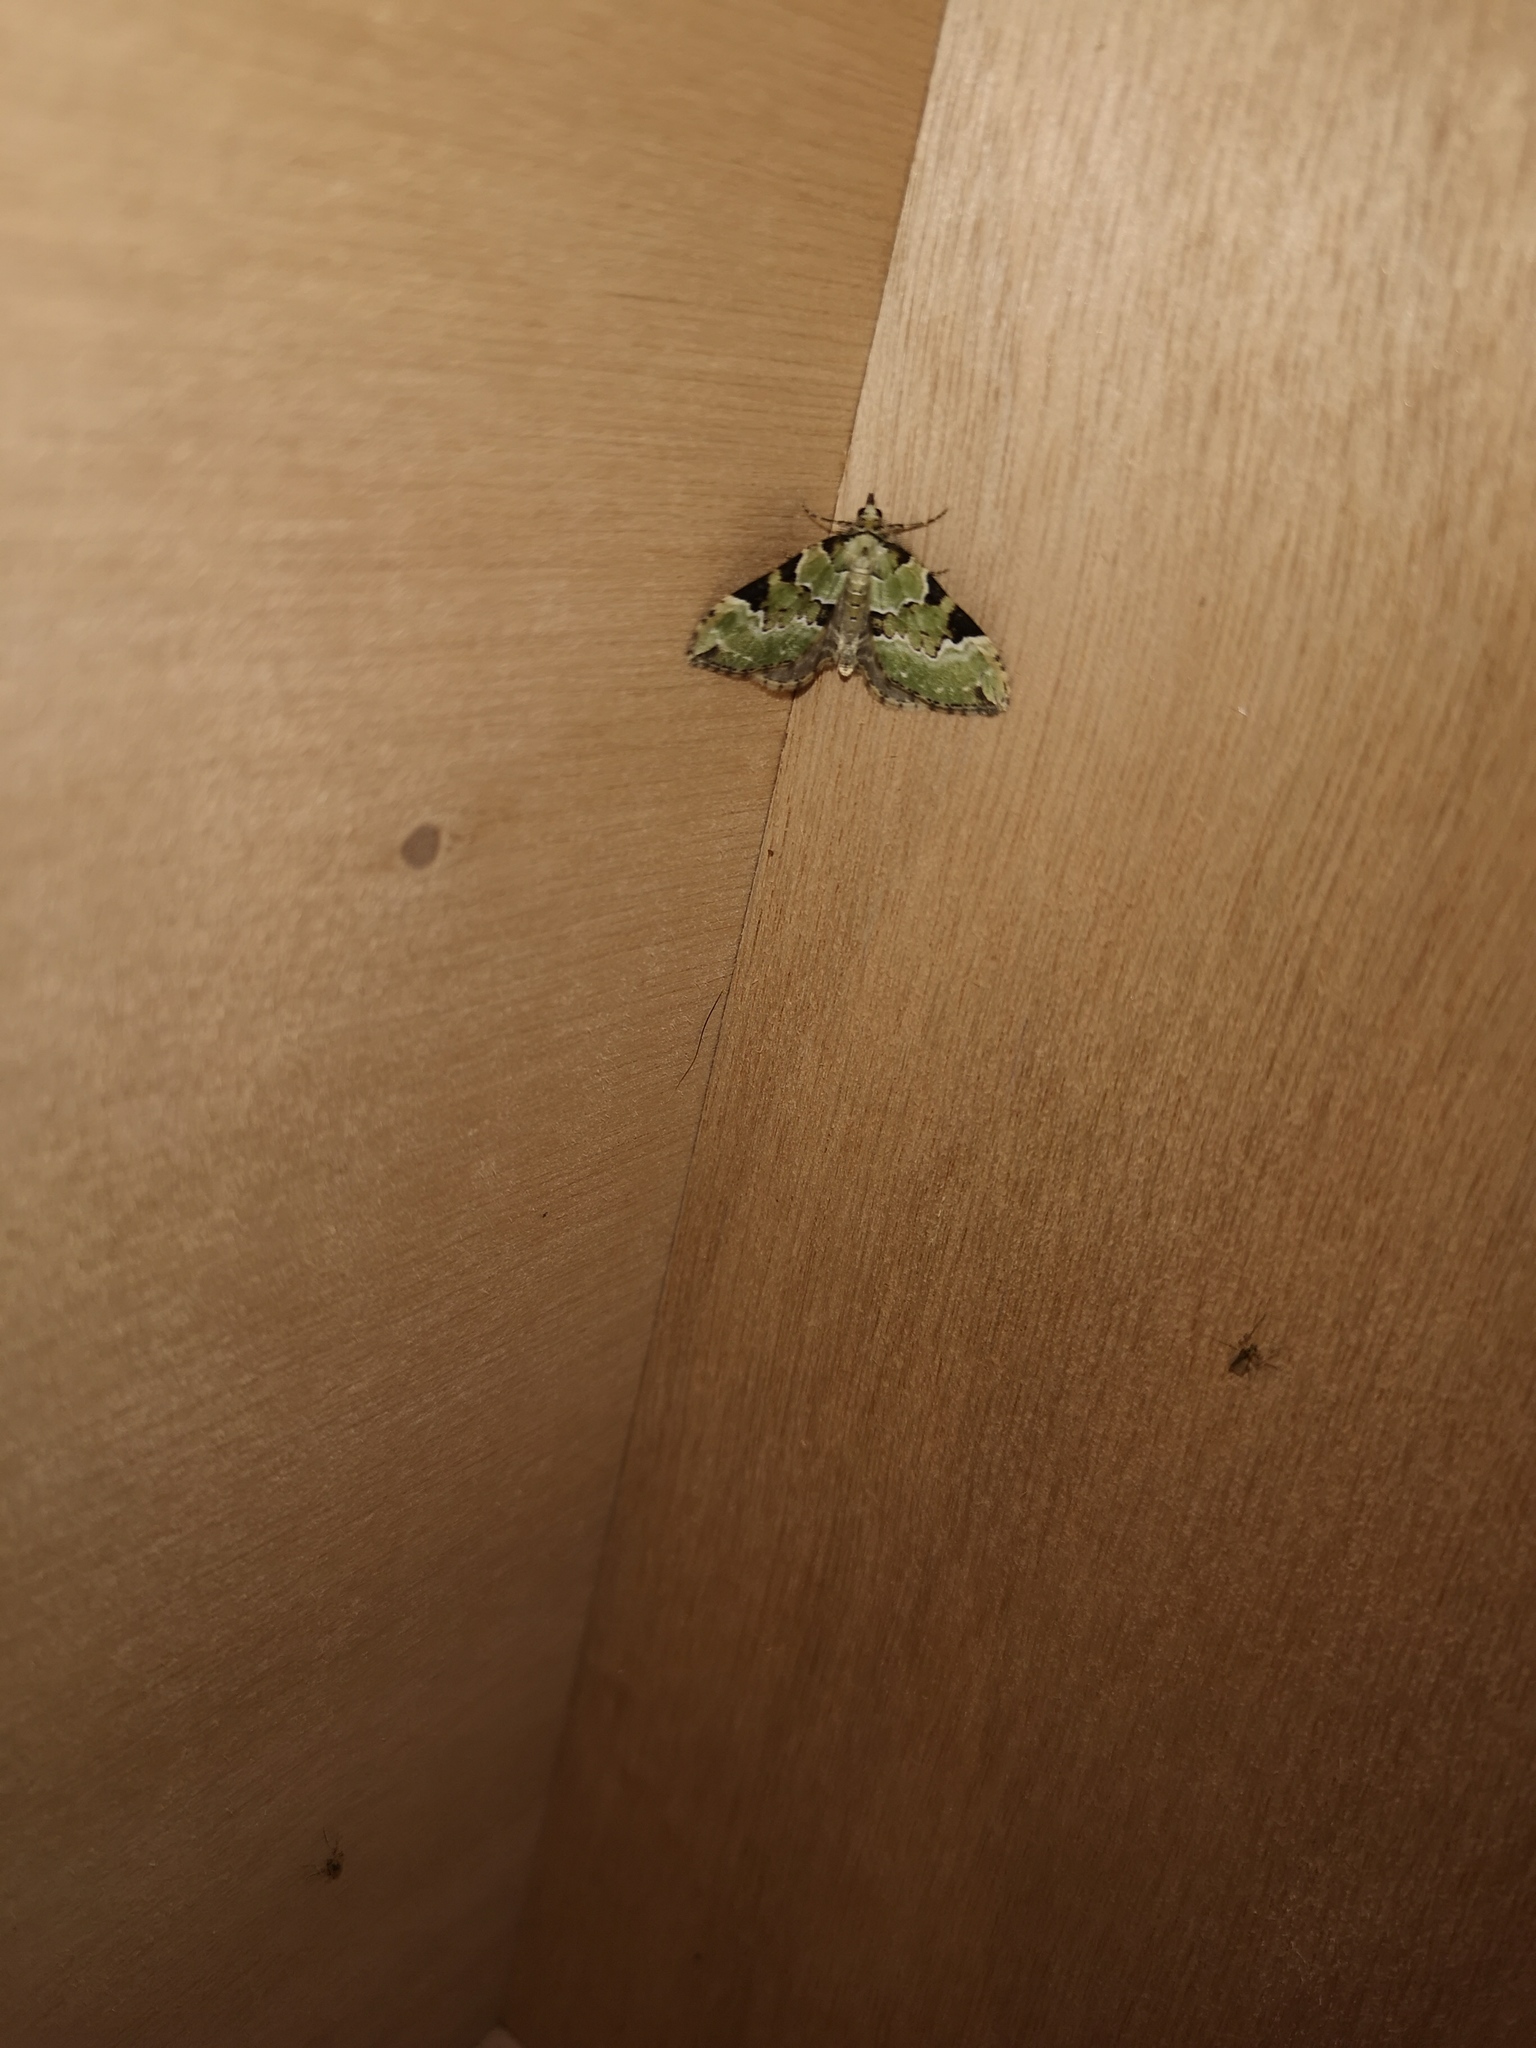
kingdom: Animalia
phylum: Arthropoda
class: Insecta
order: Lepidoptera
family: Geometridae
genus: Colostygia
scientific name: Colostygia pectinataria
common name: Green carpet
